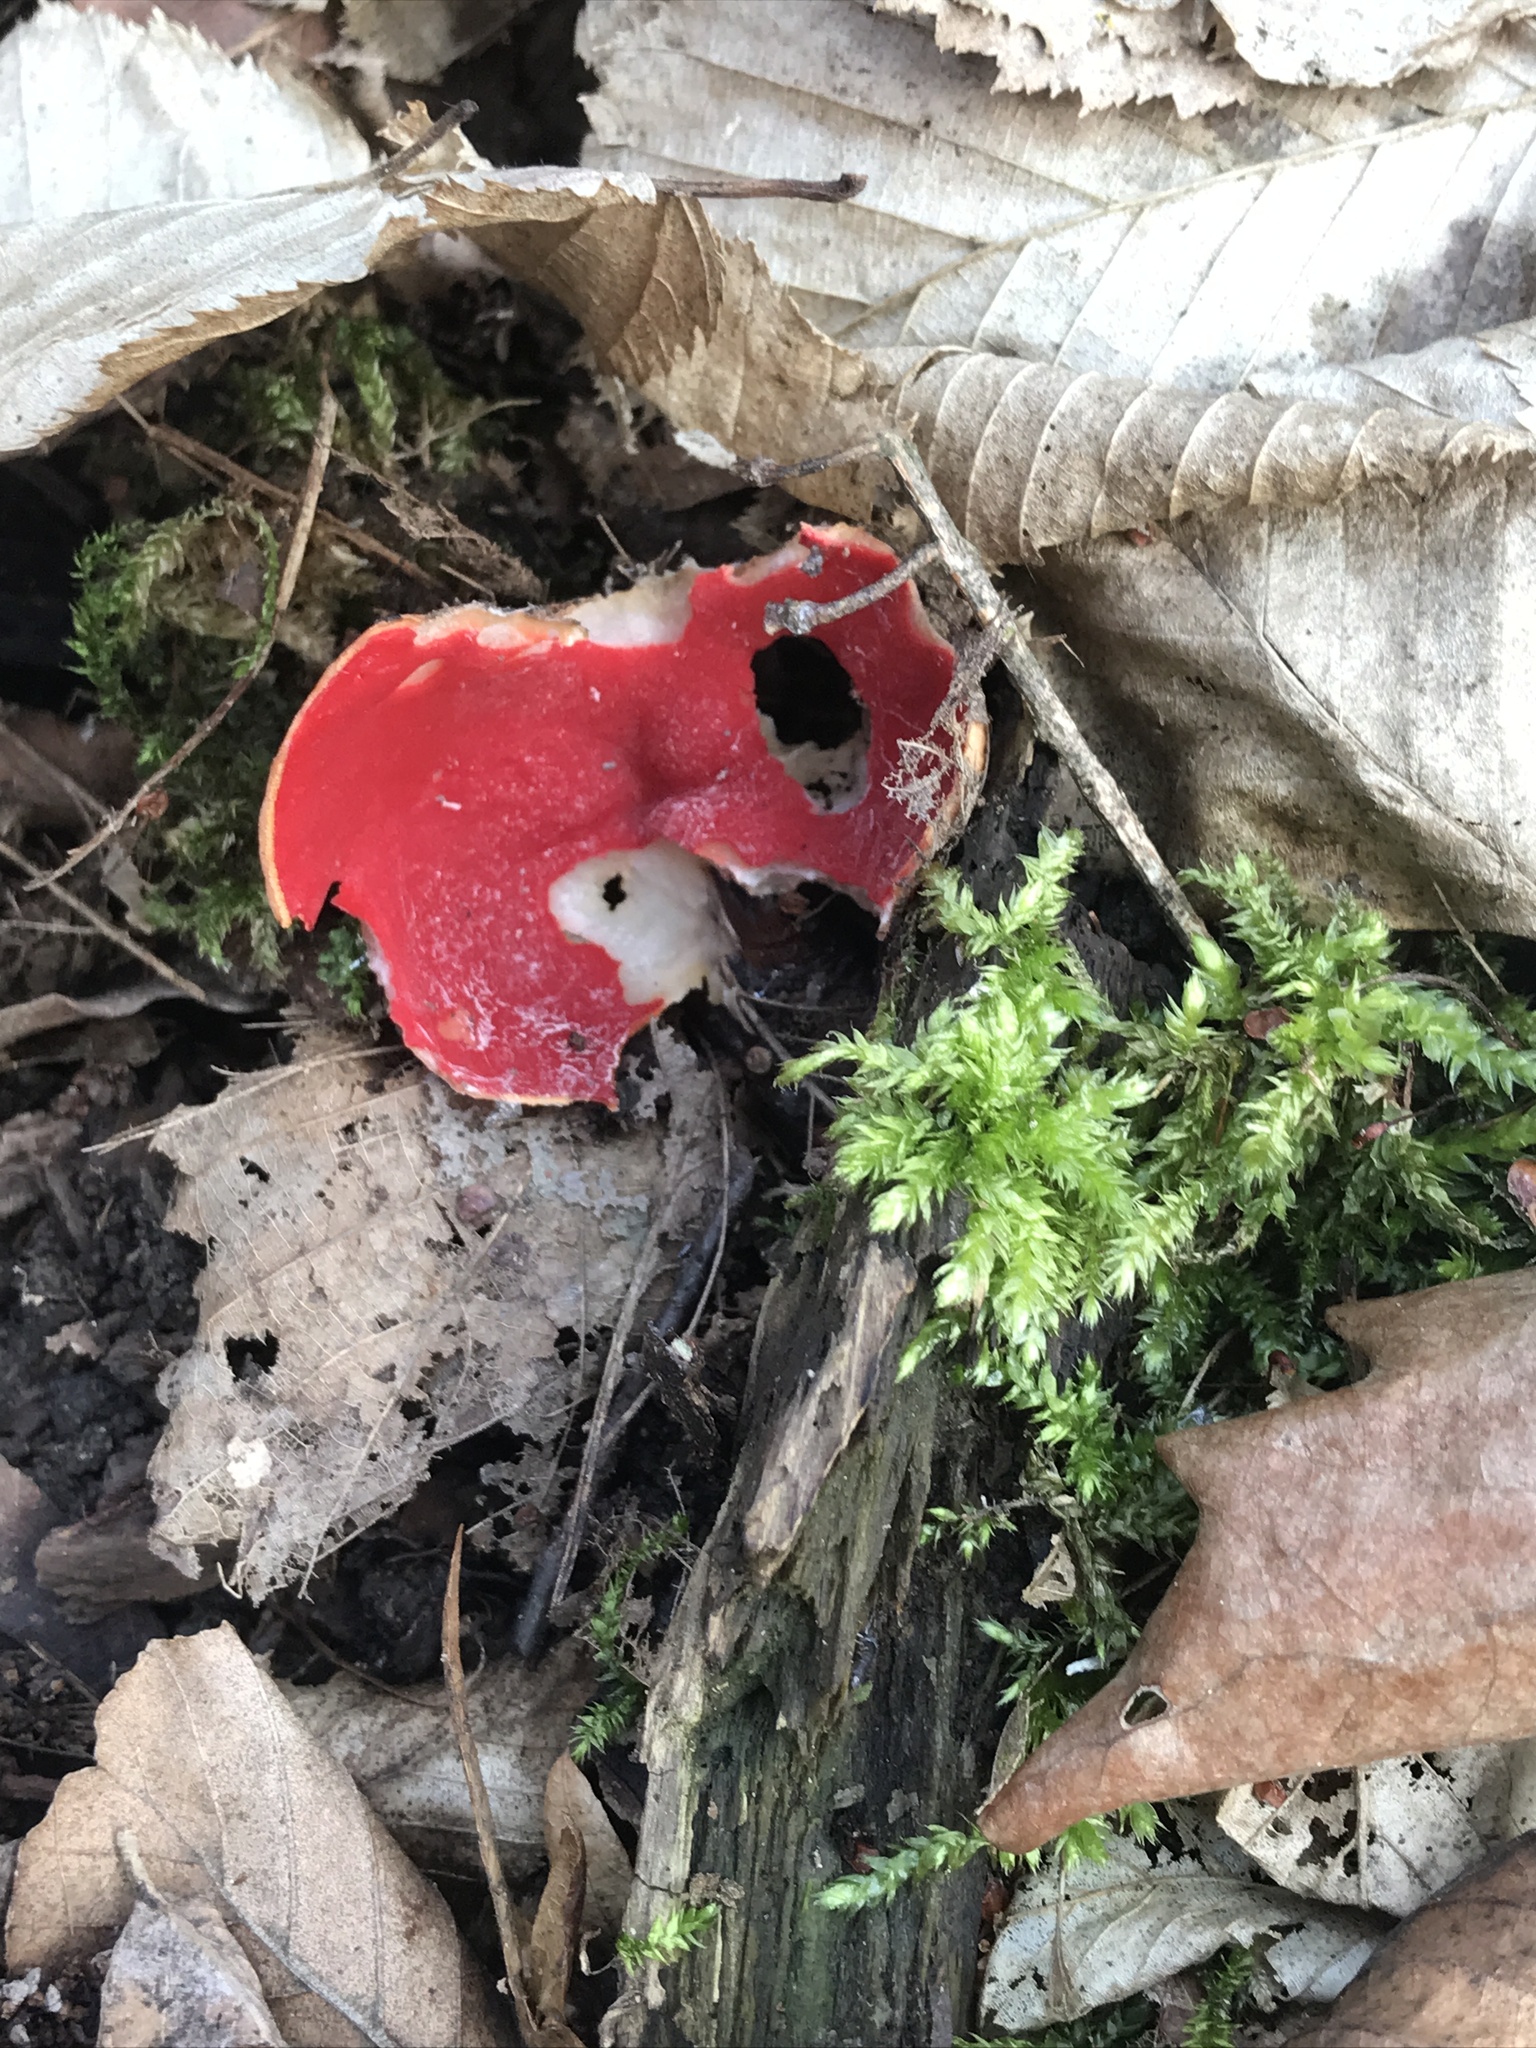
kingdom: Fungi
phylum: Ascomycota
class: Pezizomycetes
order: Pezizales
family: Sarcoscyphaceae
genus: Sarcoscypha
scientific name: Sarcoscypha
